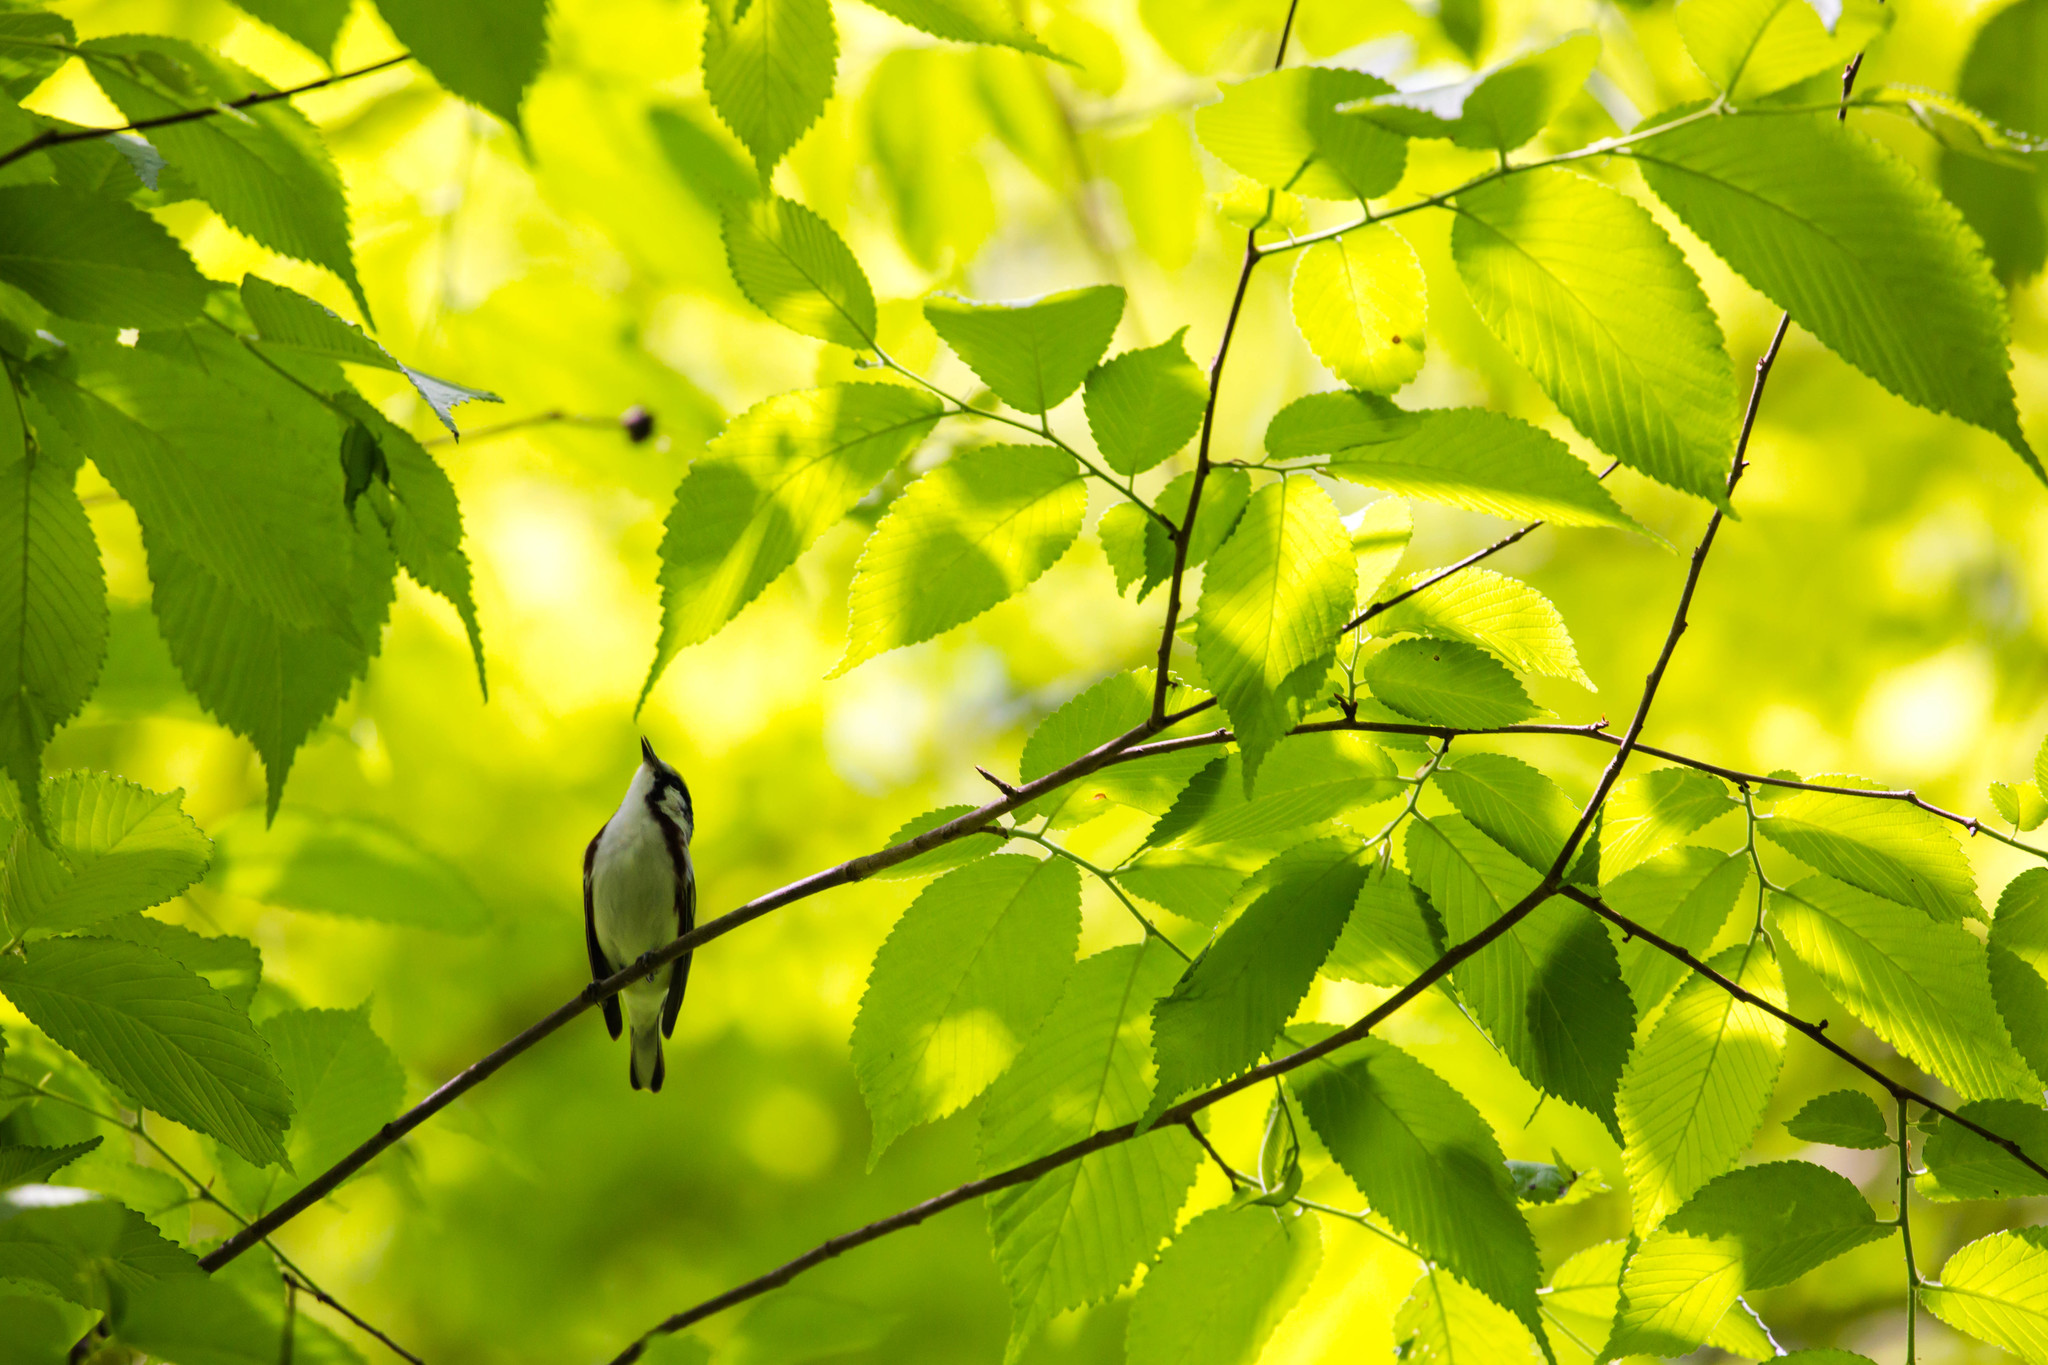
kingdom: Animalia
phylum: Chordata
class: Aves
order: Passeriformes
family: Parulidae
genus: Setophaga
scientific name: Setophaga pensylvanica
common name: Chestnut-sided warbler
